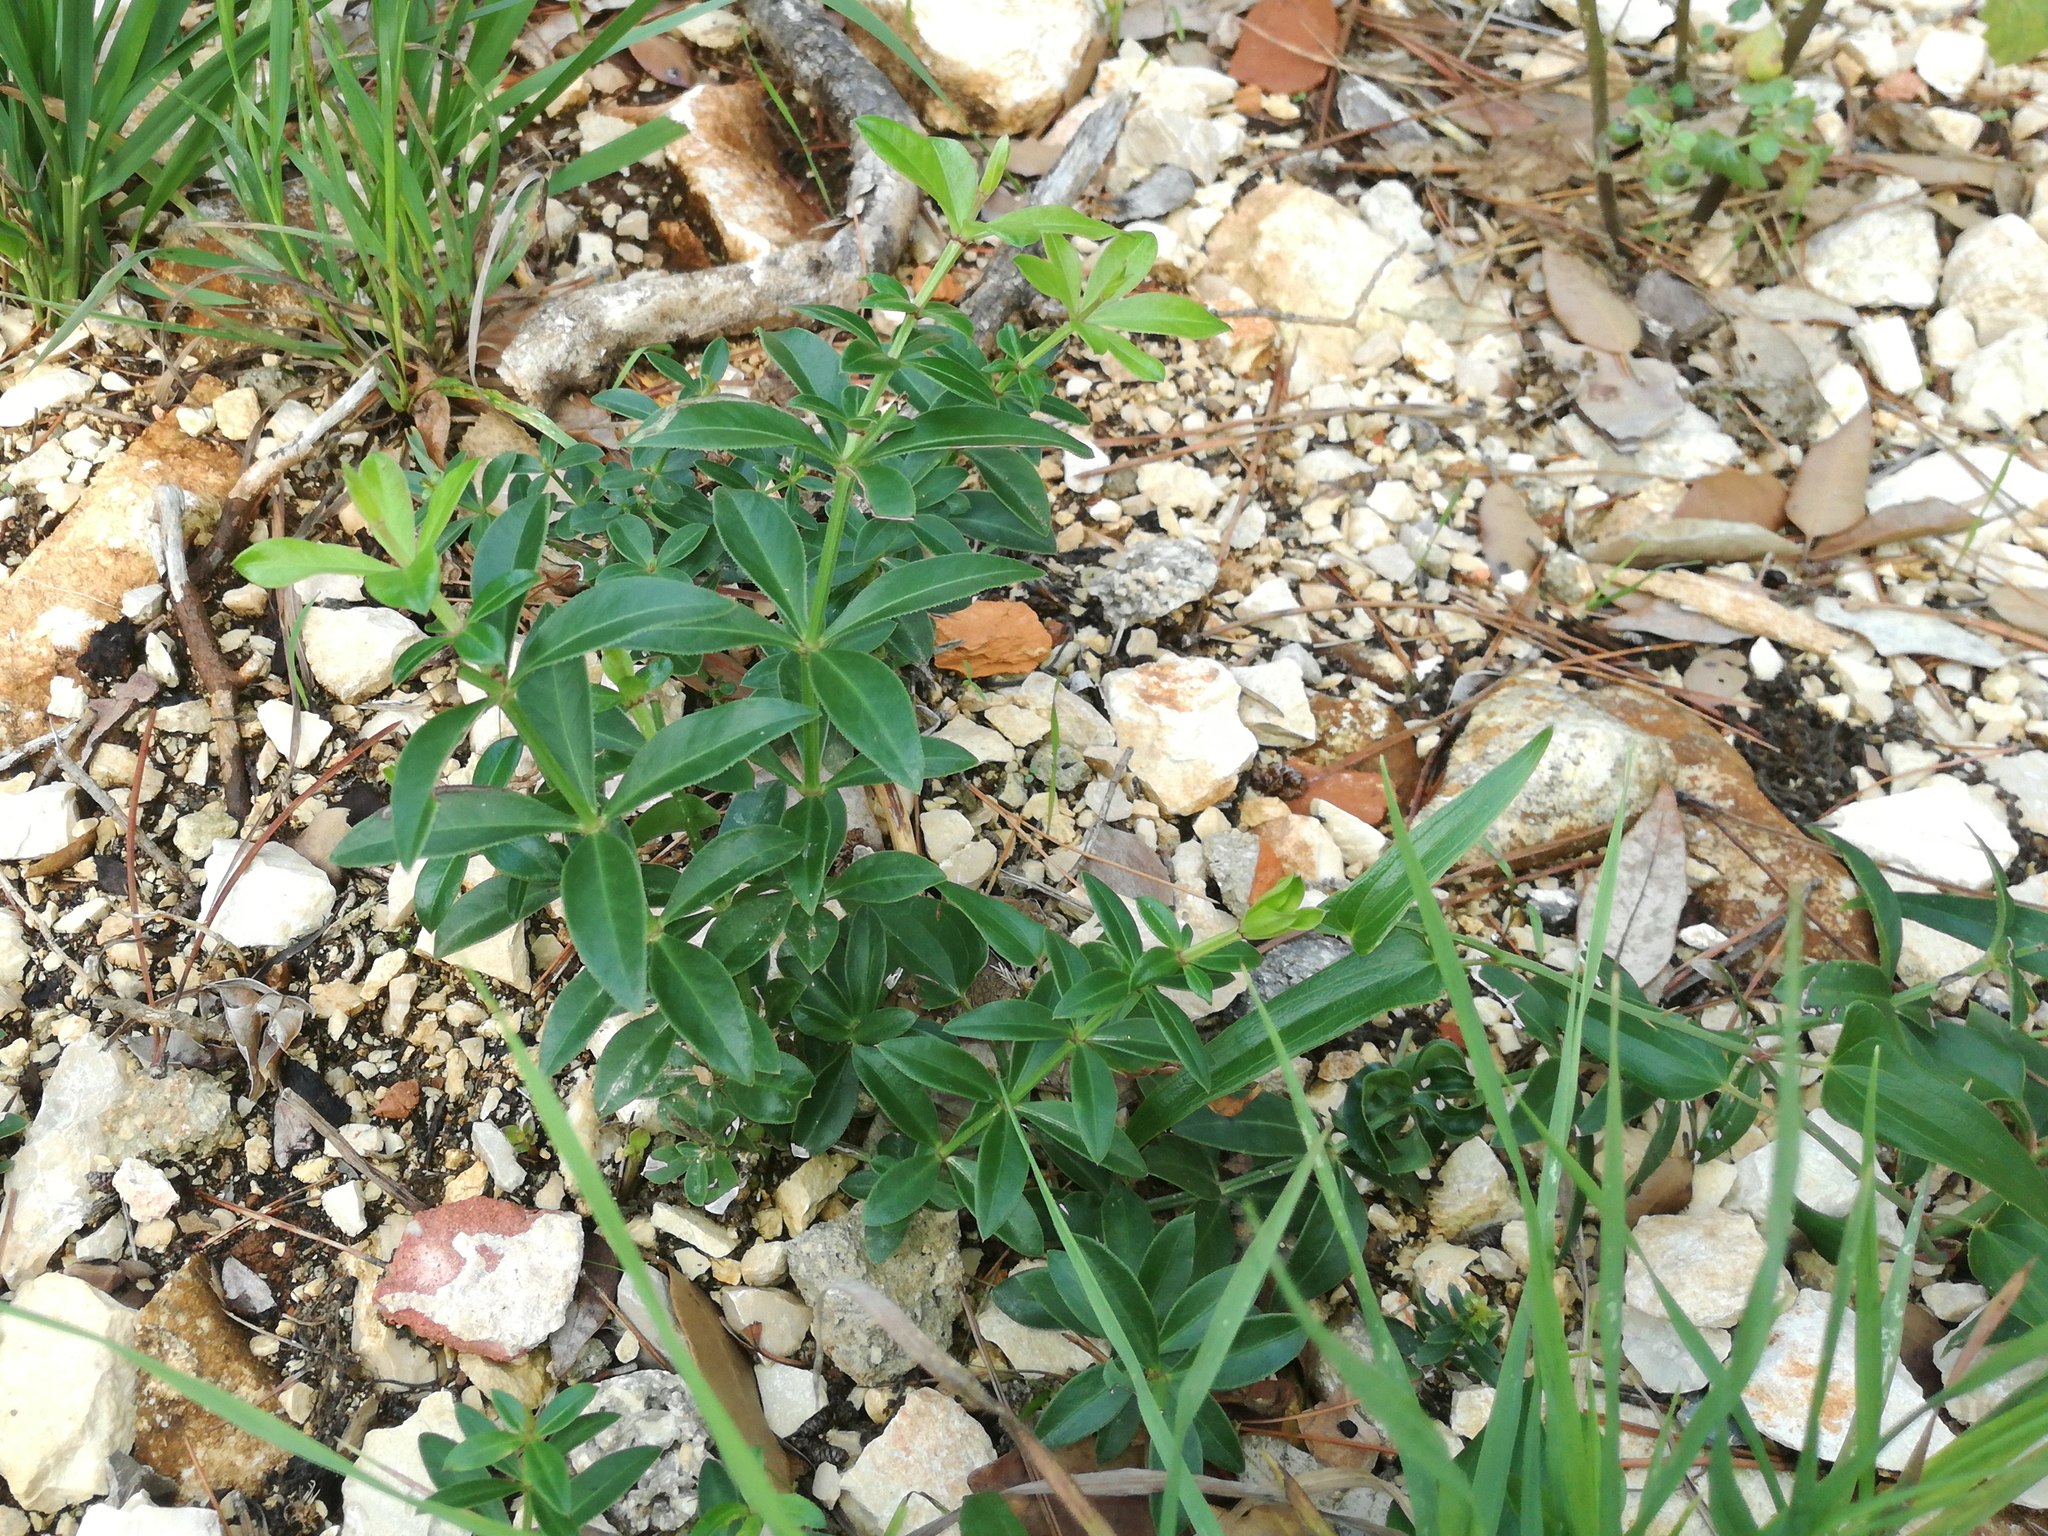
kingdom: Plantae
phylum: Tracheophyta
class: Magnoliopsida
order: Gentianales
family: Rubiaceae
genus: Rubia
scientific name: Rubia peregrina
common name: Wild madder
